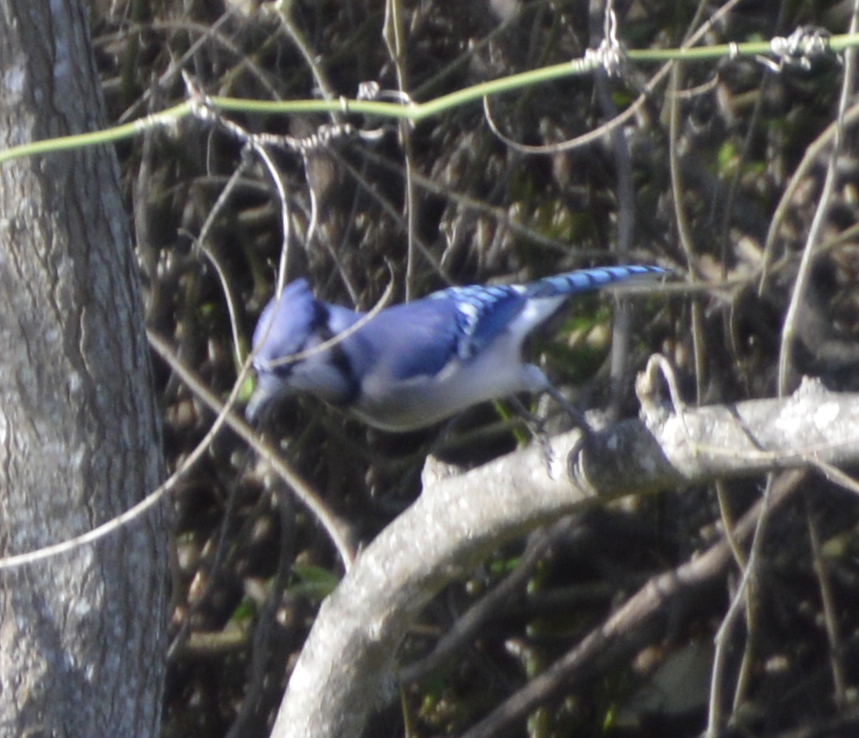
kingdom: Animalia
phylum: Chordata
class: Aves
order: Passeriformes
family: Corvidae
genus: Cyanocitta
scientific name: Cyanocitta cristata
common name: Blue jay
